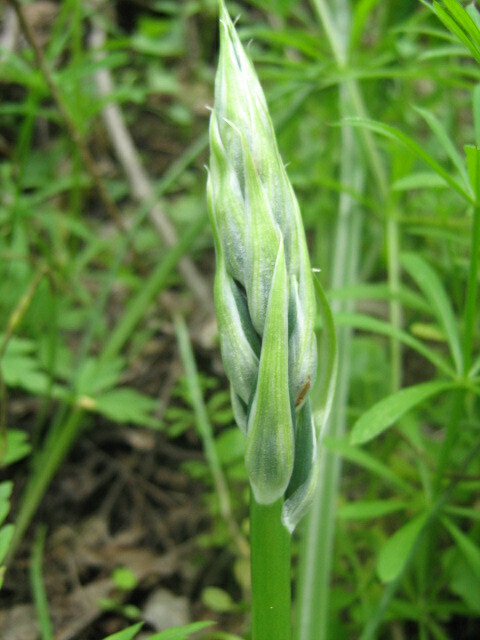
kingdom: Plantae
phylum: Tracheophyta
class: Liliopsida
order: Asparagales
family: Asparagaceae
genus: Ornithogalum
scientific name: Ornithogalum boucheanum
